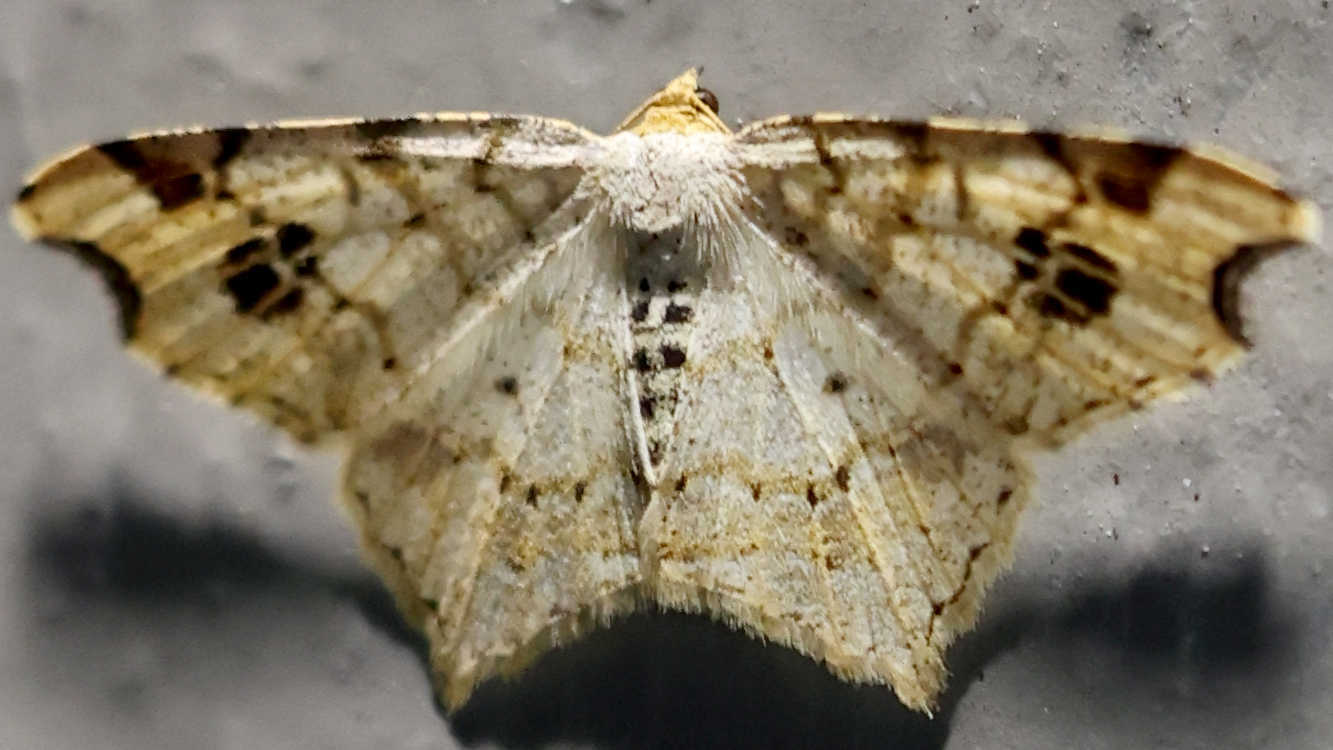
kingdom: Animalia
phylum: Arthropoda
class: Insecta
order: Lepidoptera
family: Geometridae
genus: Macaria
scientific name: Macaria aemulataria
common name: Common angle
